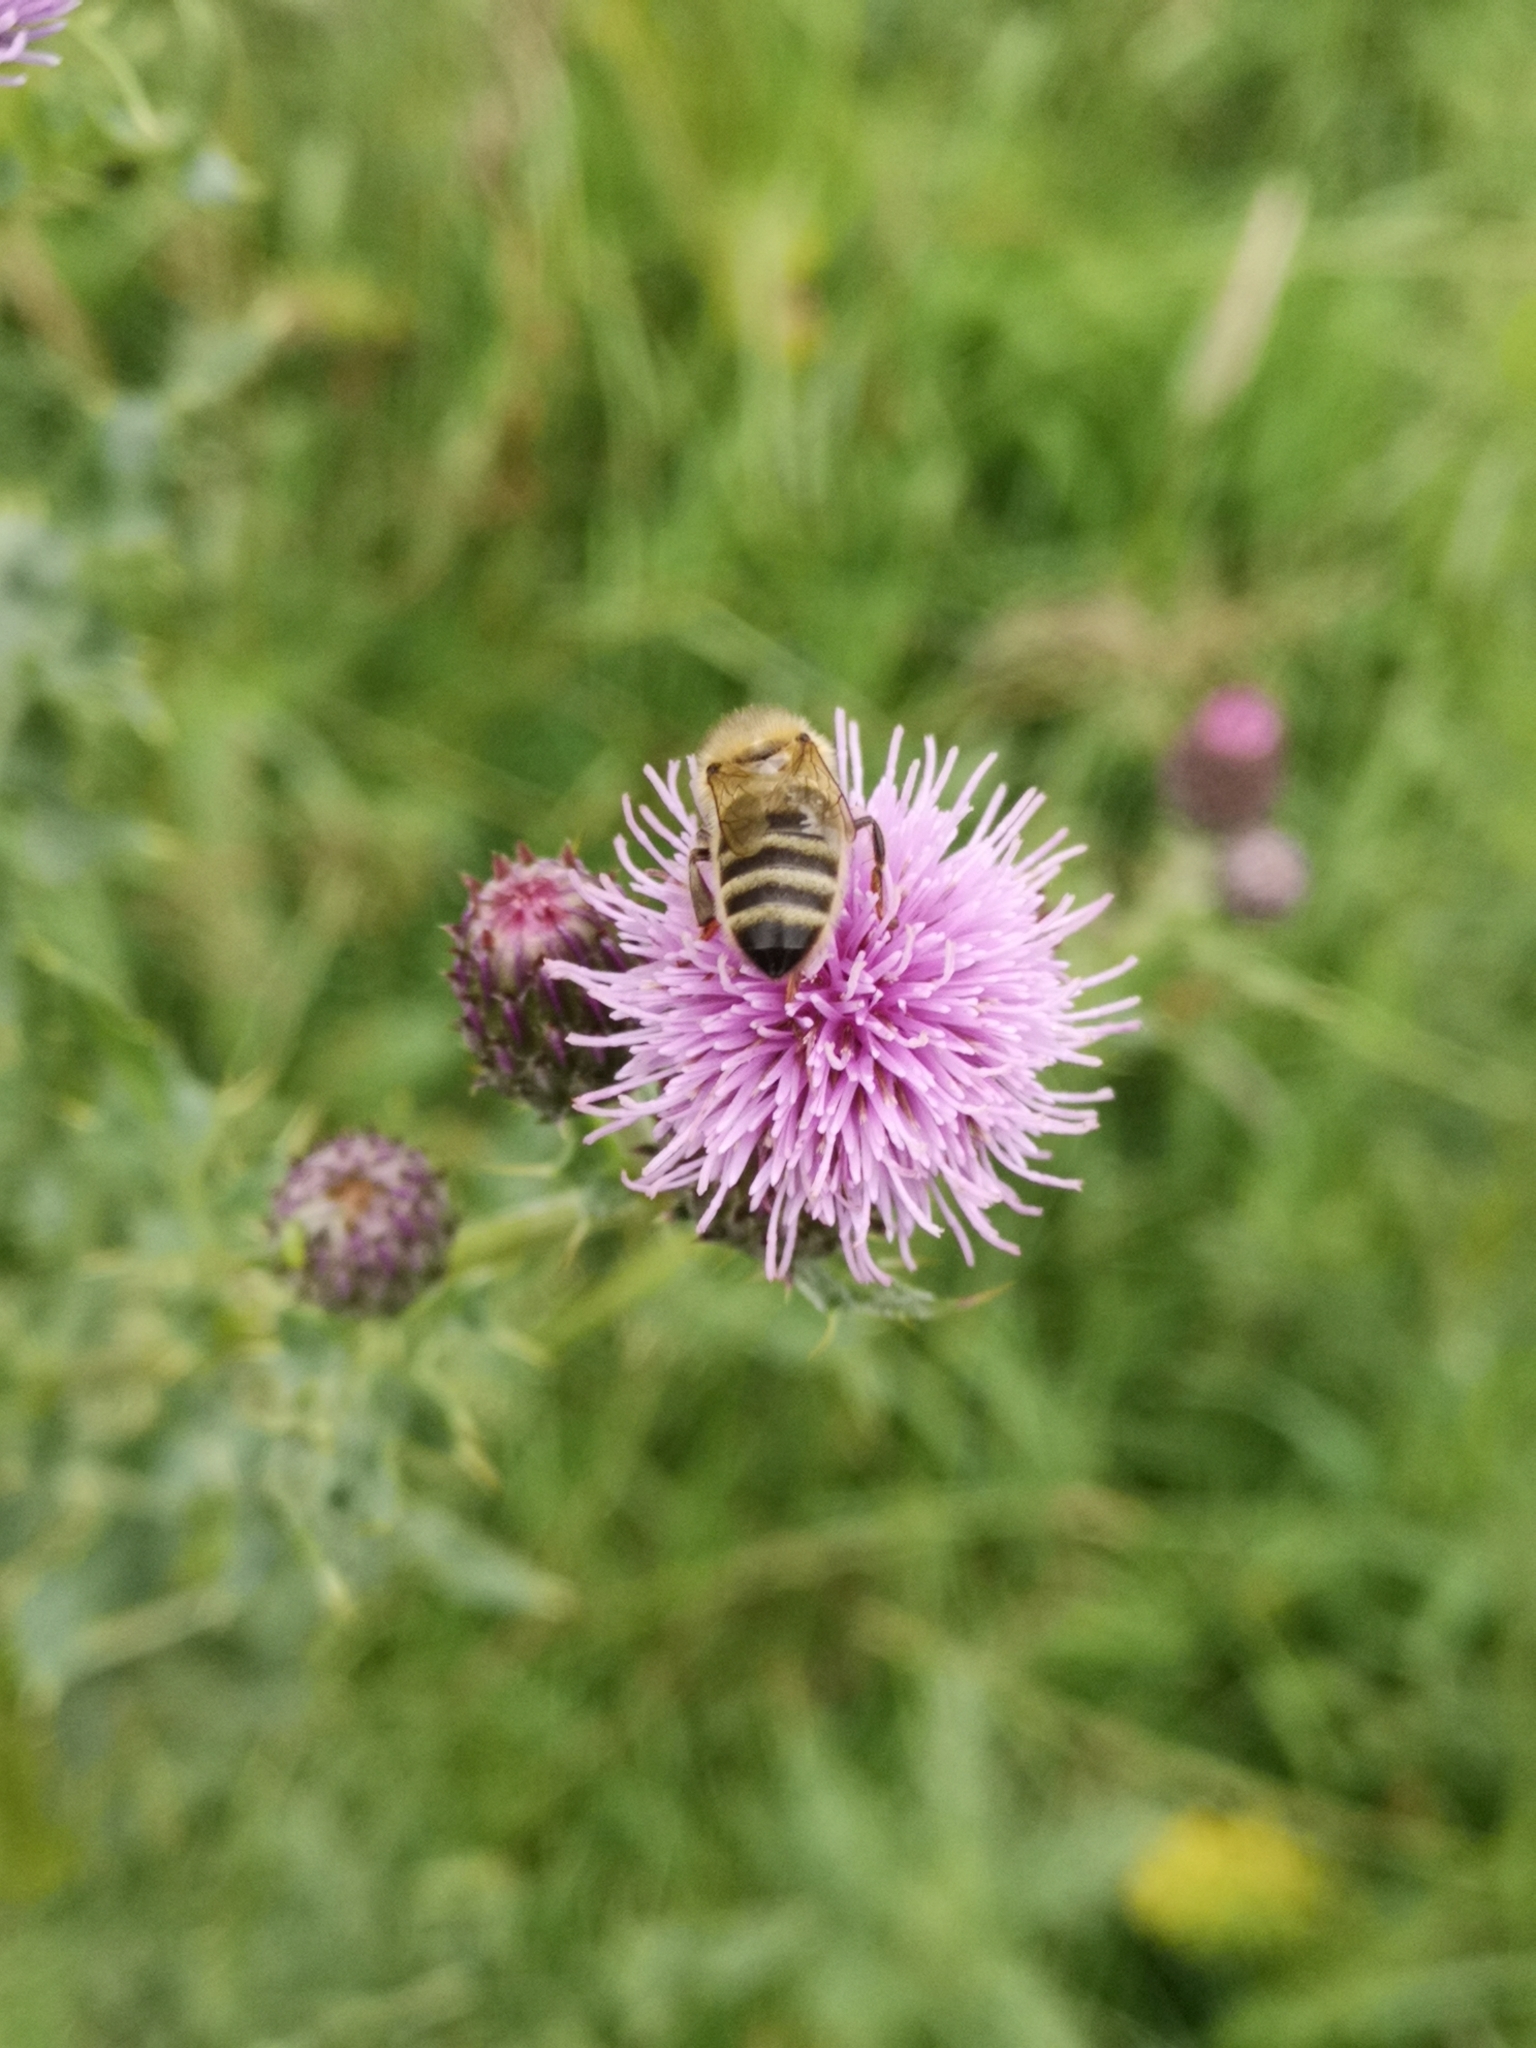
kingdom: Animalia
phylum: Arthropoda
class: Insecta
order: Hymenoptera
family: Apidae
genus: Apis
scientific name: Apis mellifera
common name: Honey bee
